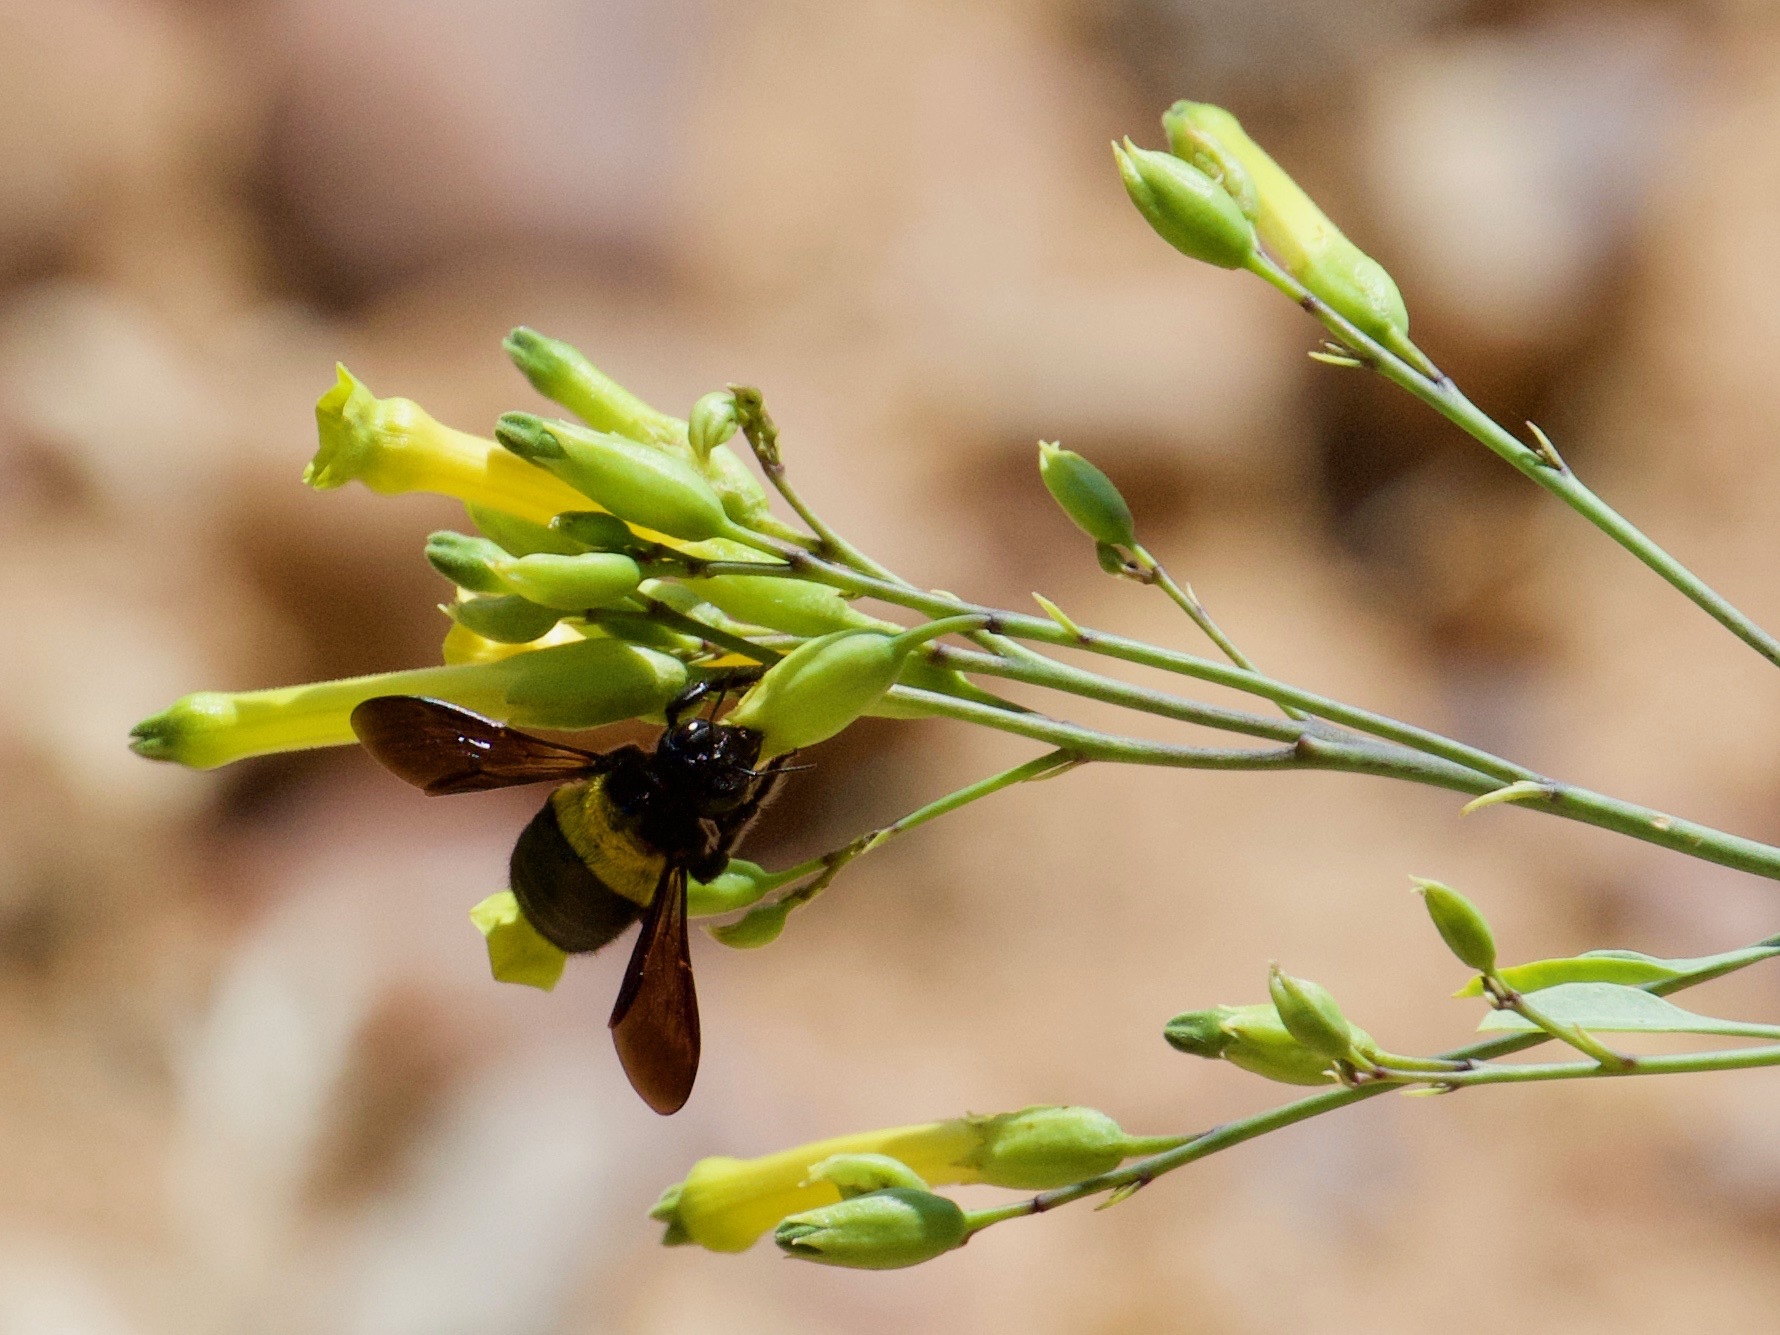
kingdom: Animalia
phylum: Arthropoda
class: Insecta
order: Hymenoptera
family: Apidae
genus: Xylocopa
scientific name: Xylocopa caffra
